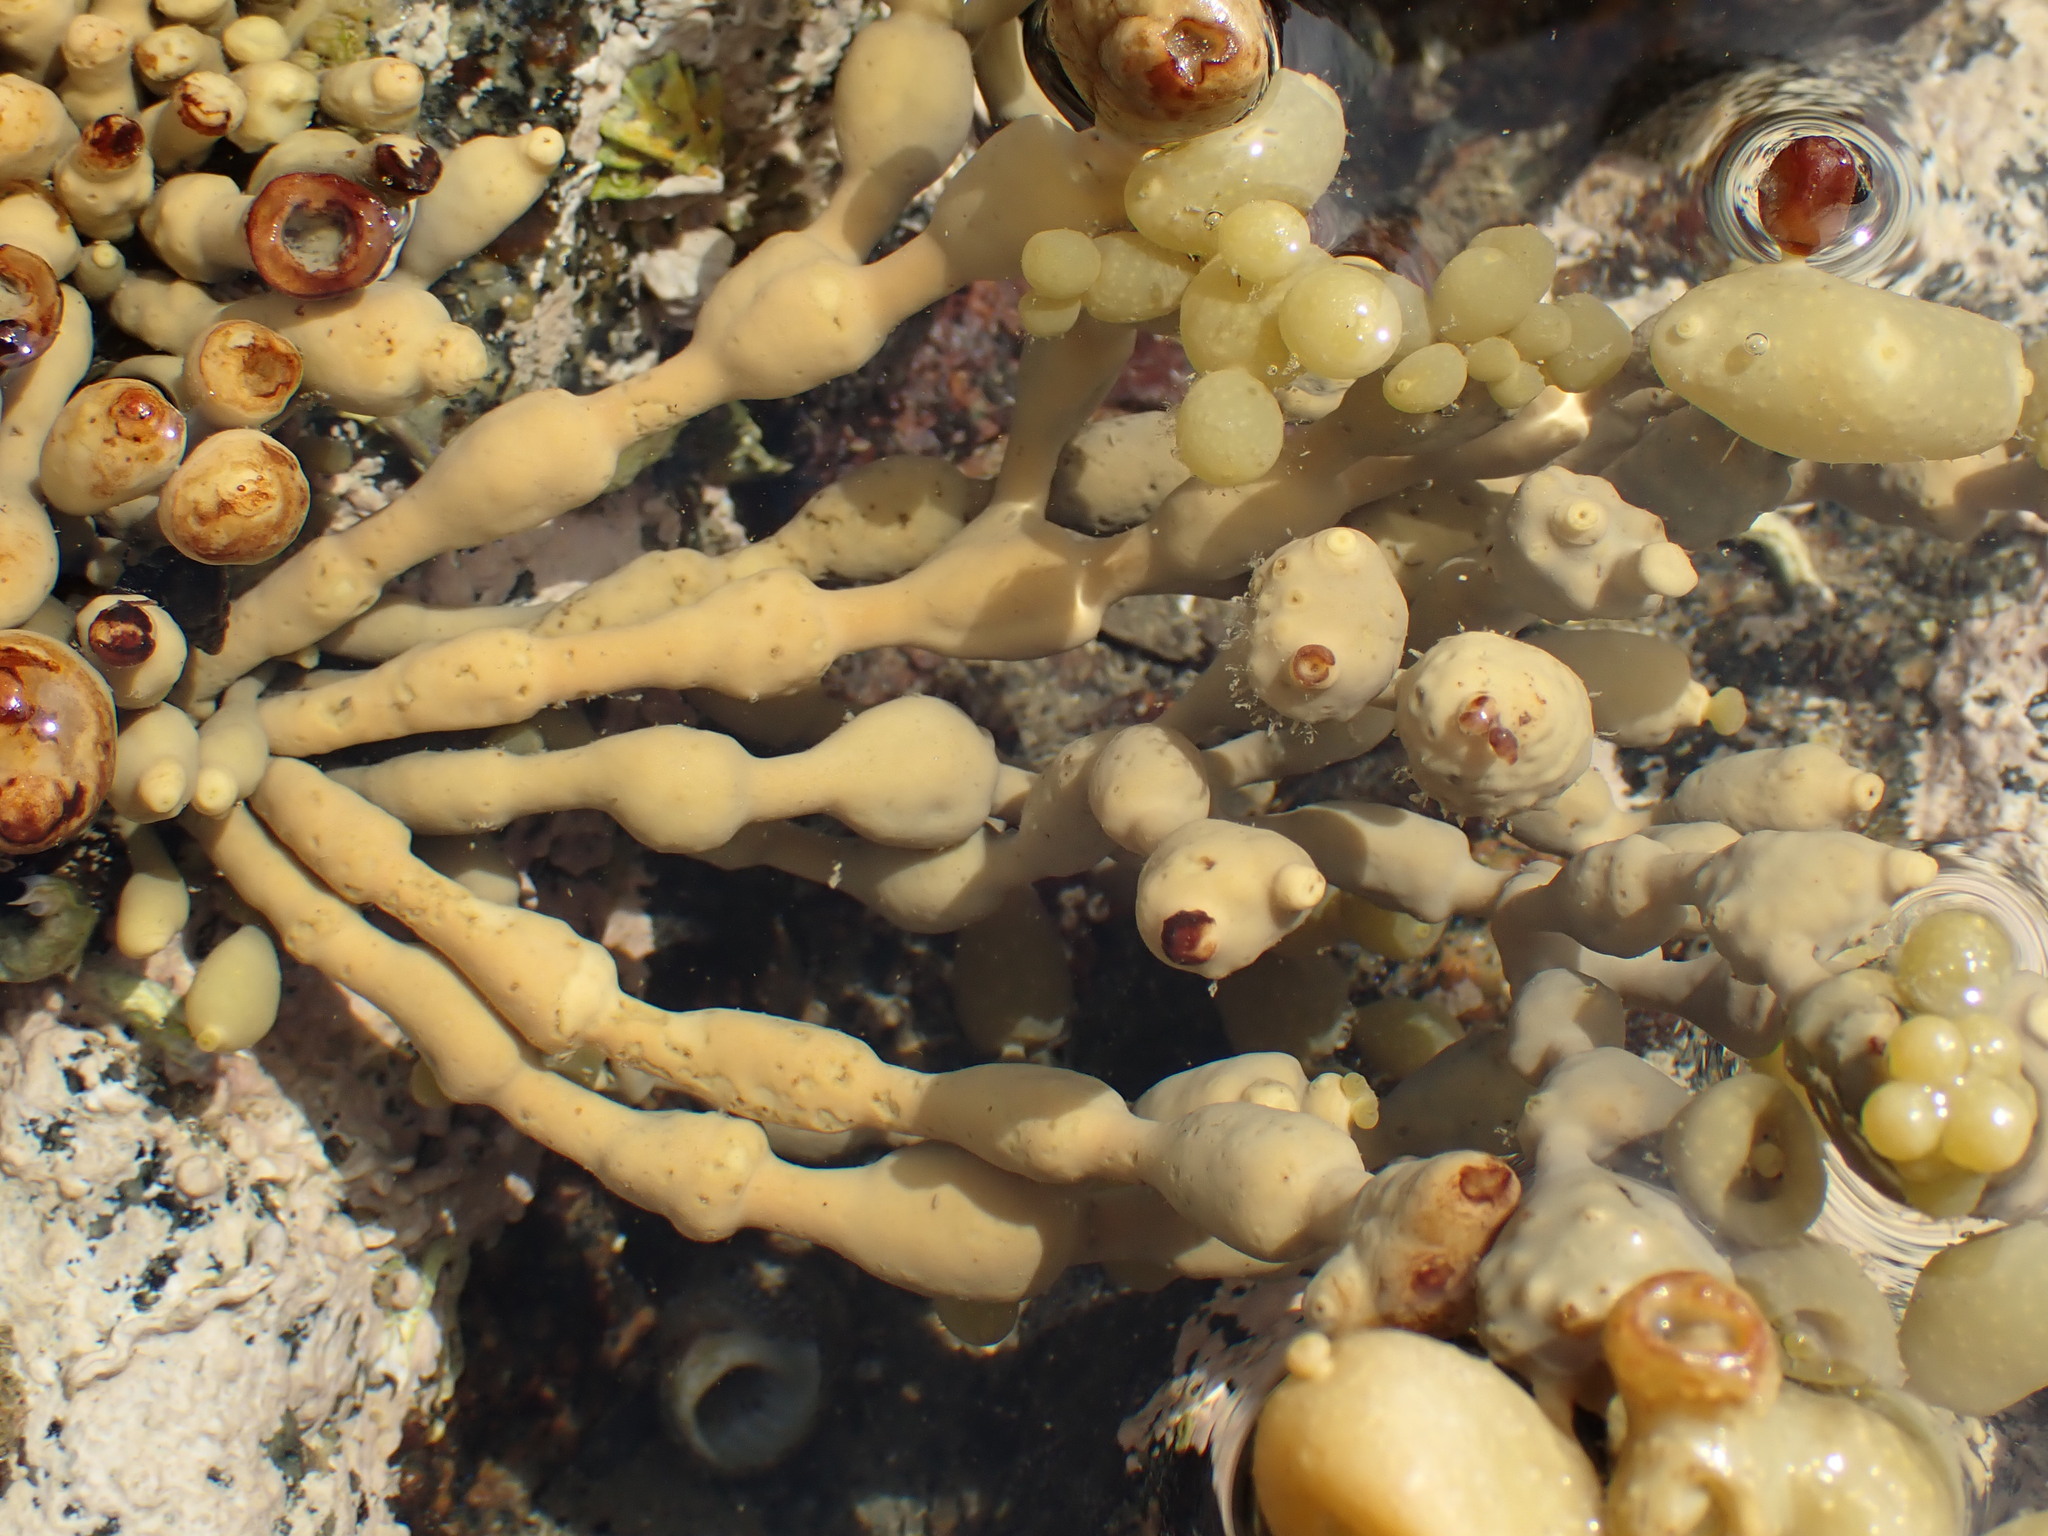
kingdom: Chromista
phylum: Ochrophyta
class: Phaeophyceae
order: Fucales
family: Hormosiraceae
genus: Hormosira
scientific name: Hormosira banksii
